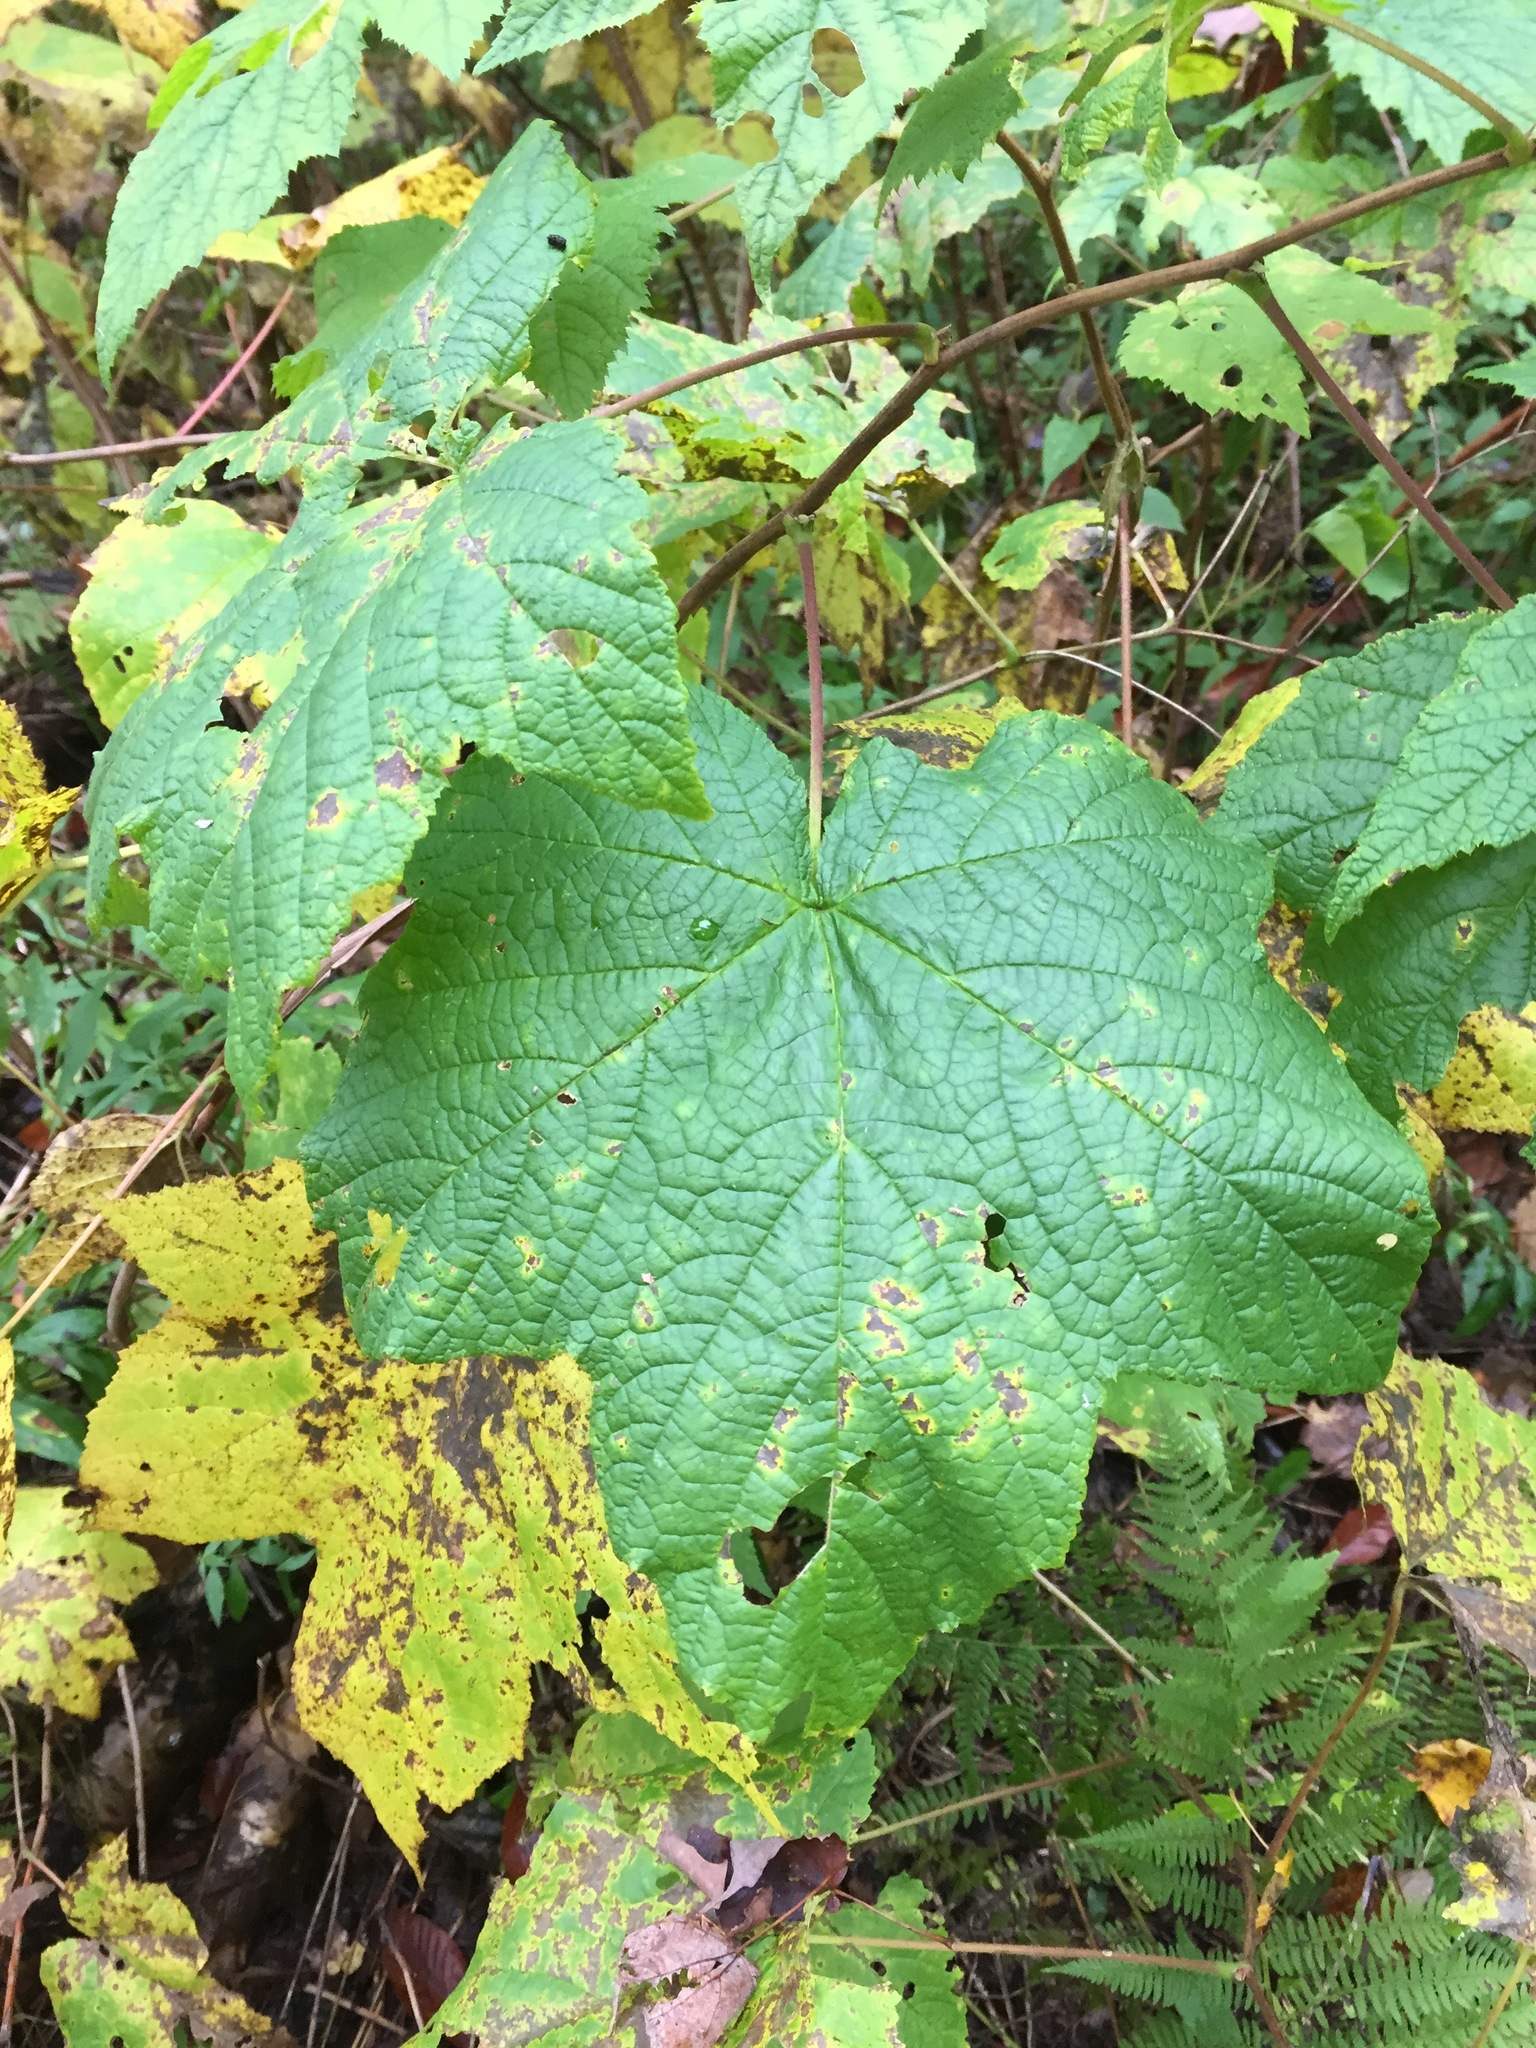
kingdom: Plantae
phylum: Tracheophyta
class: Magnoliopsida
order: Rosales
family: Rosaceae
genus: Rubus
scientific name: Rubus odoratus
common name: Purple-flowered raspberry
